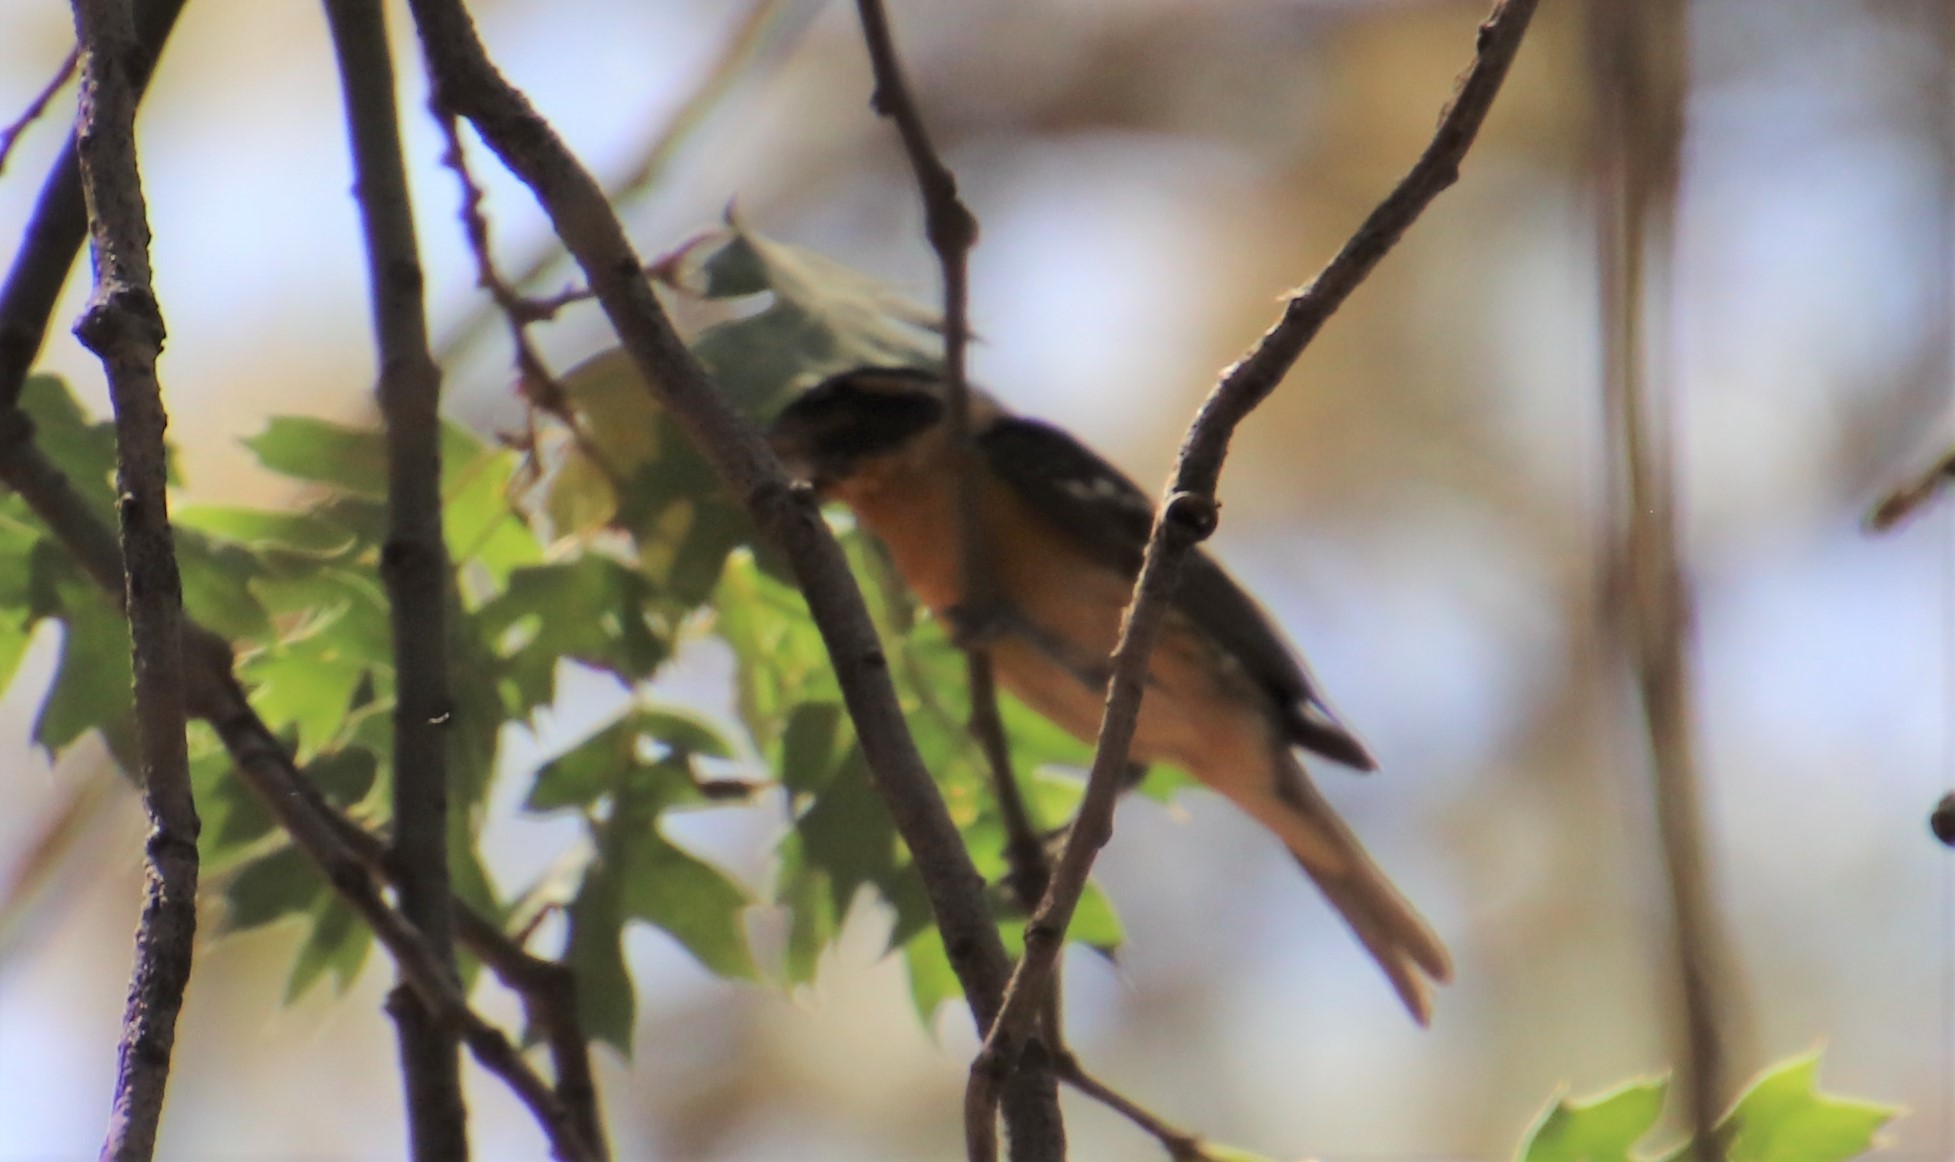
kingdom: Animalia
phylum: Chordata
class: Aves
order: Passeriformes
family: Cardinalidae
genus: Pheucticus
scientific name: Pheucticus melanocephalus
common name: Black-headed grosbeak
